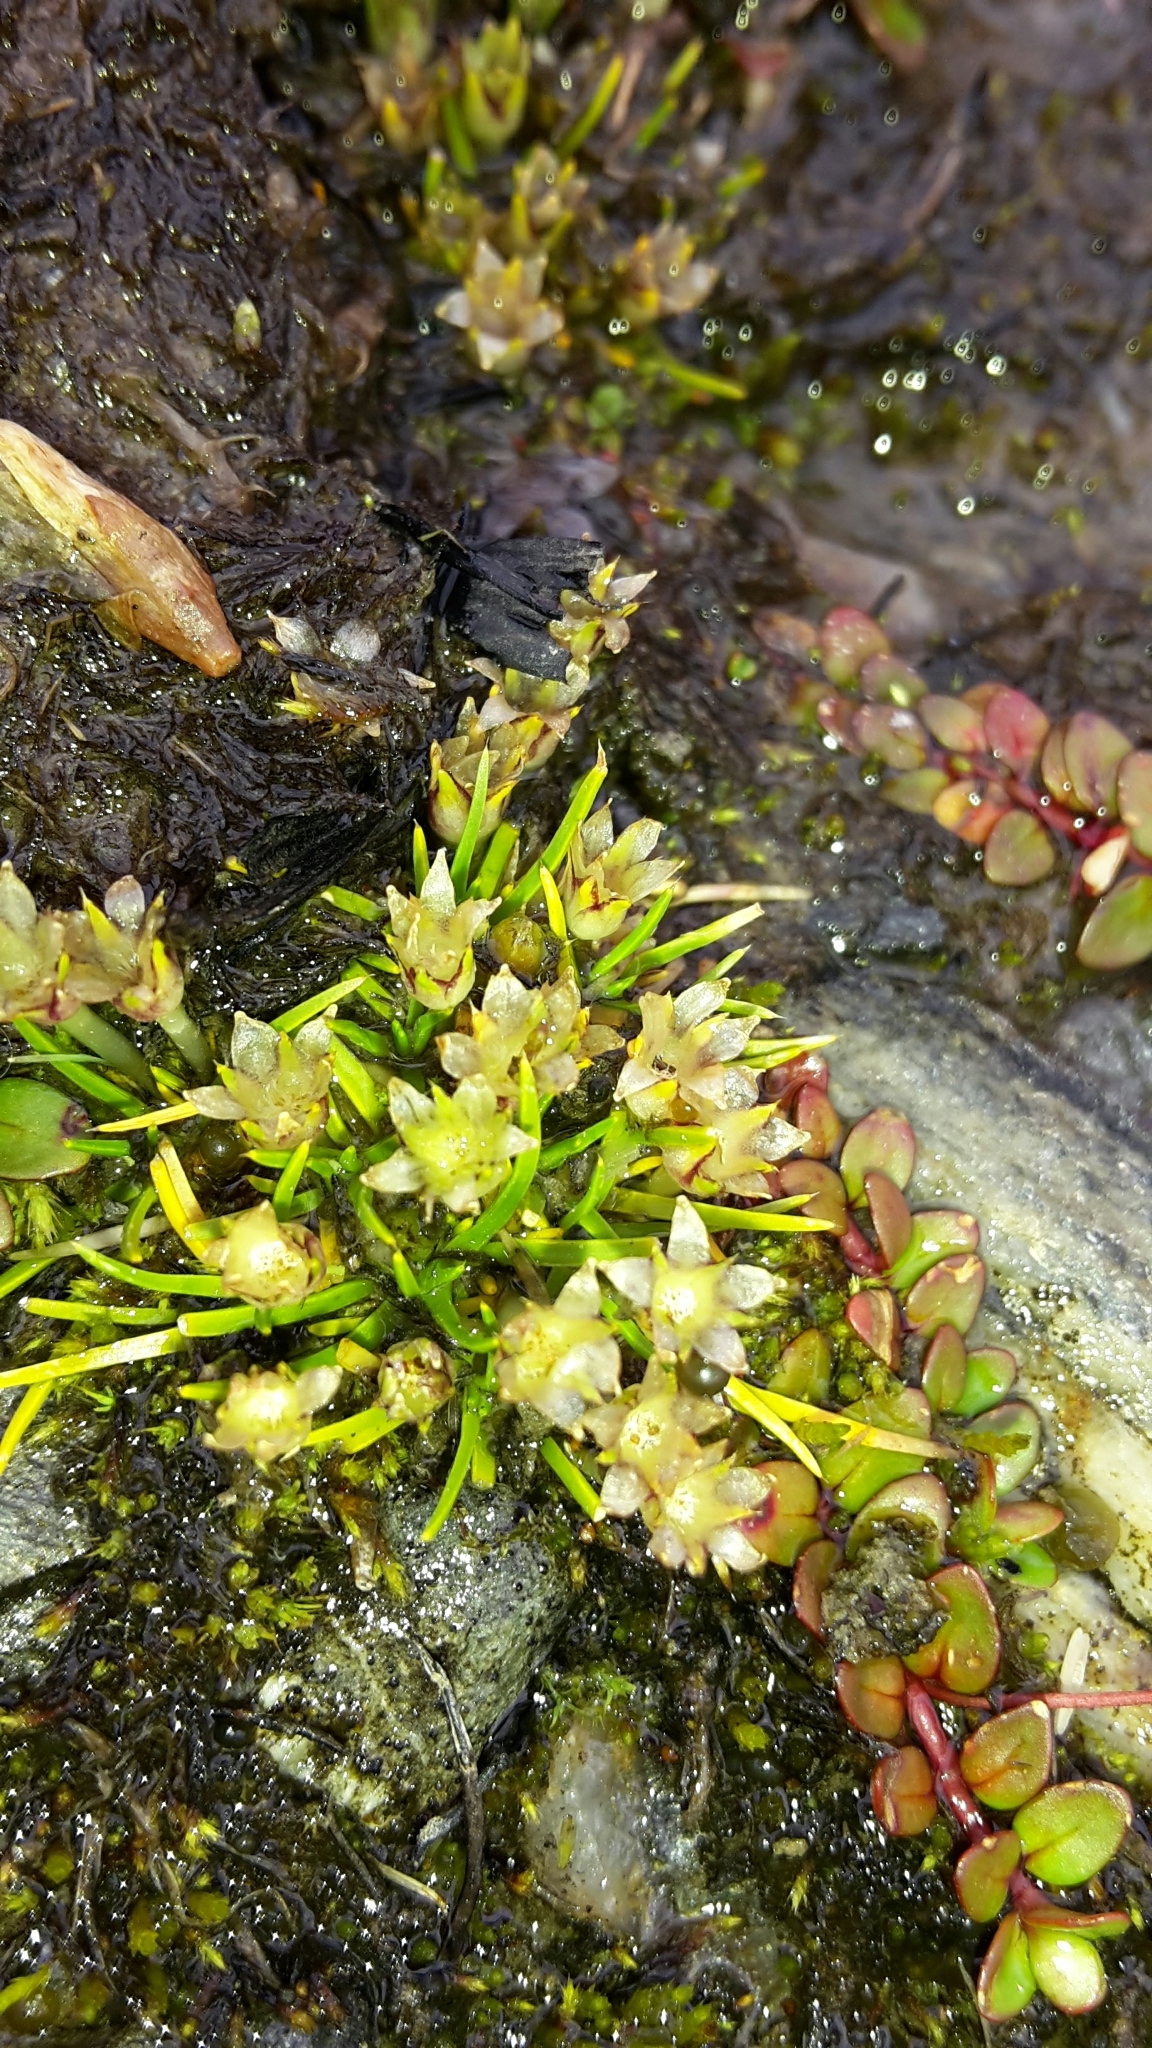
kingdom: Plantae
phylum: Tracheophyta
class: Magnoliopsida
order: Caryophyllales
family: Caryophyllaceae
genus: Colobanthus
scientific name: Colobanthus affinis
